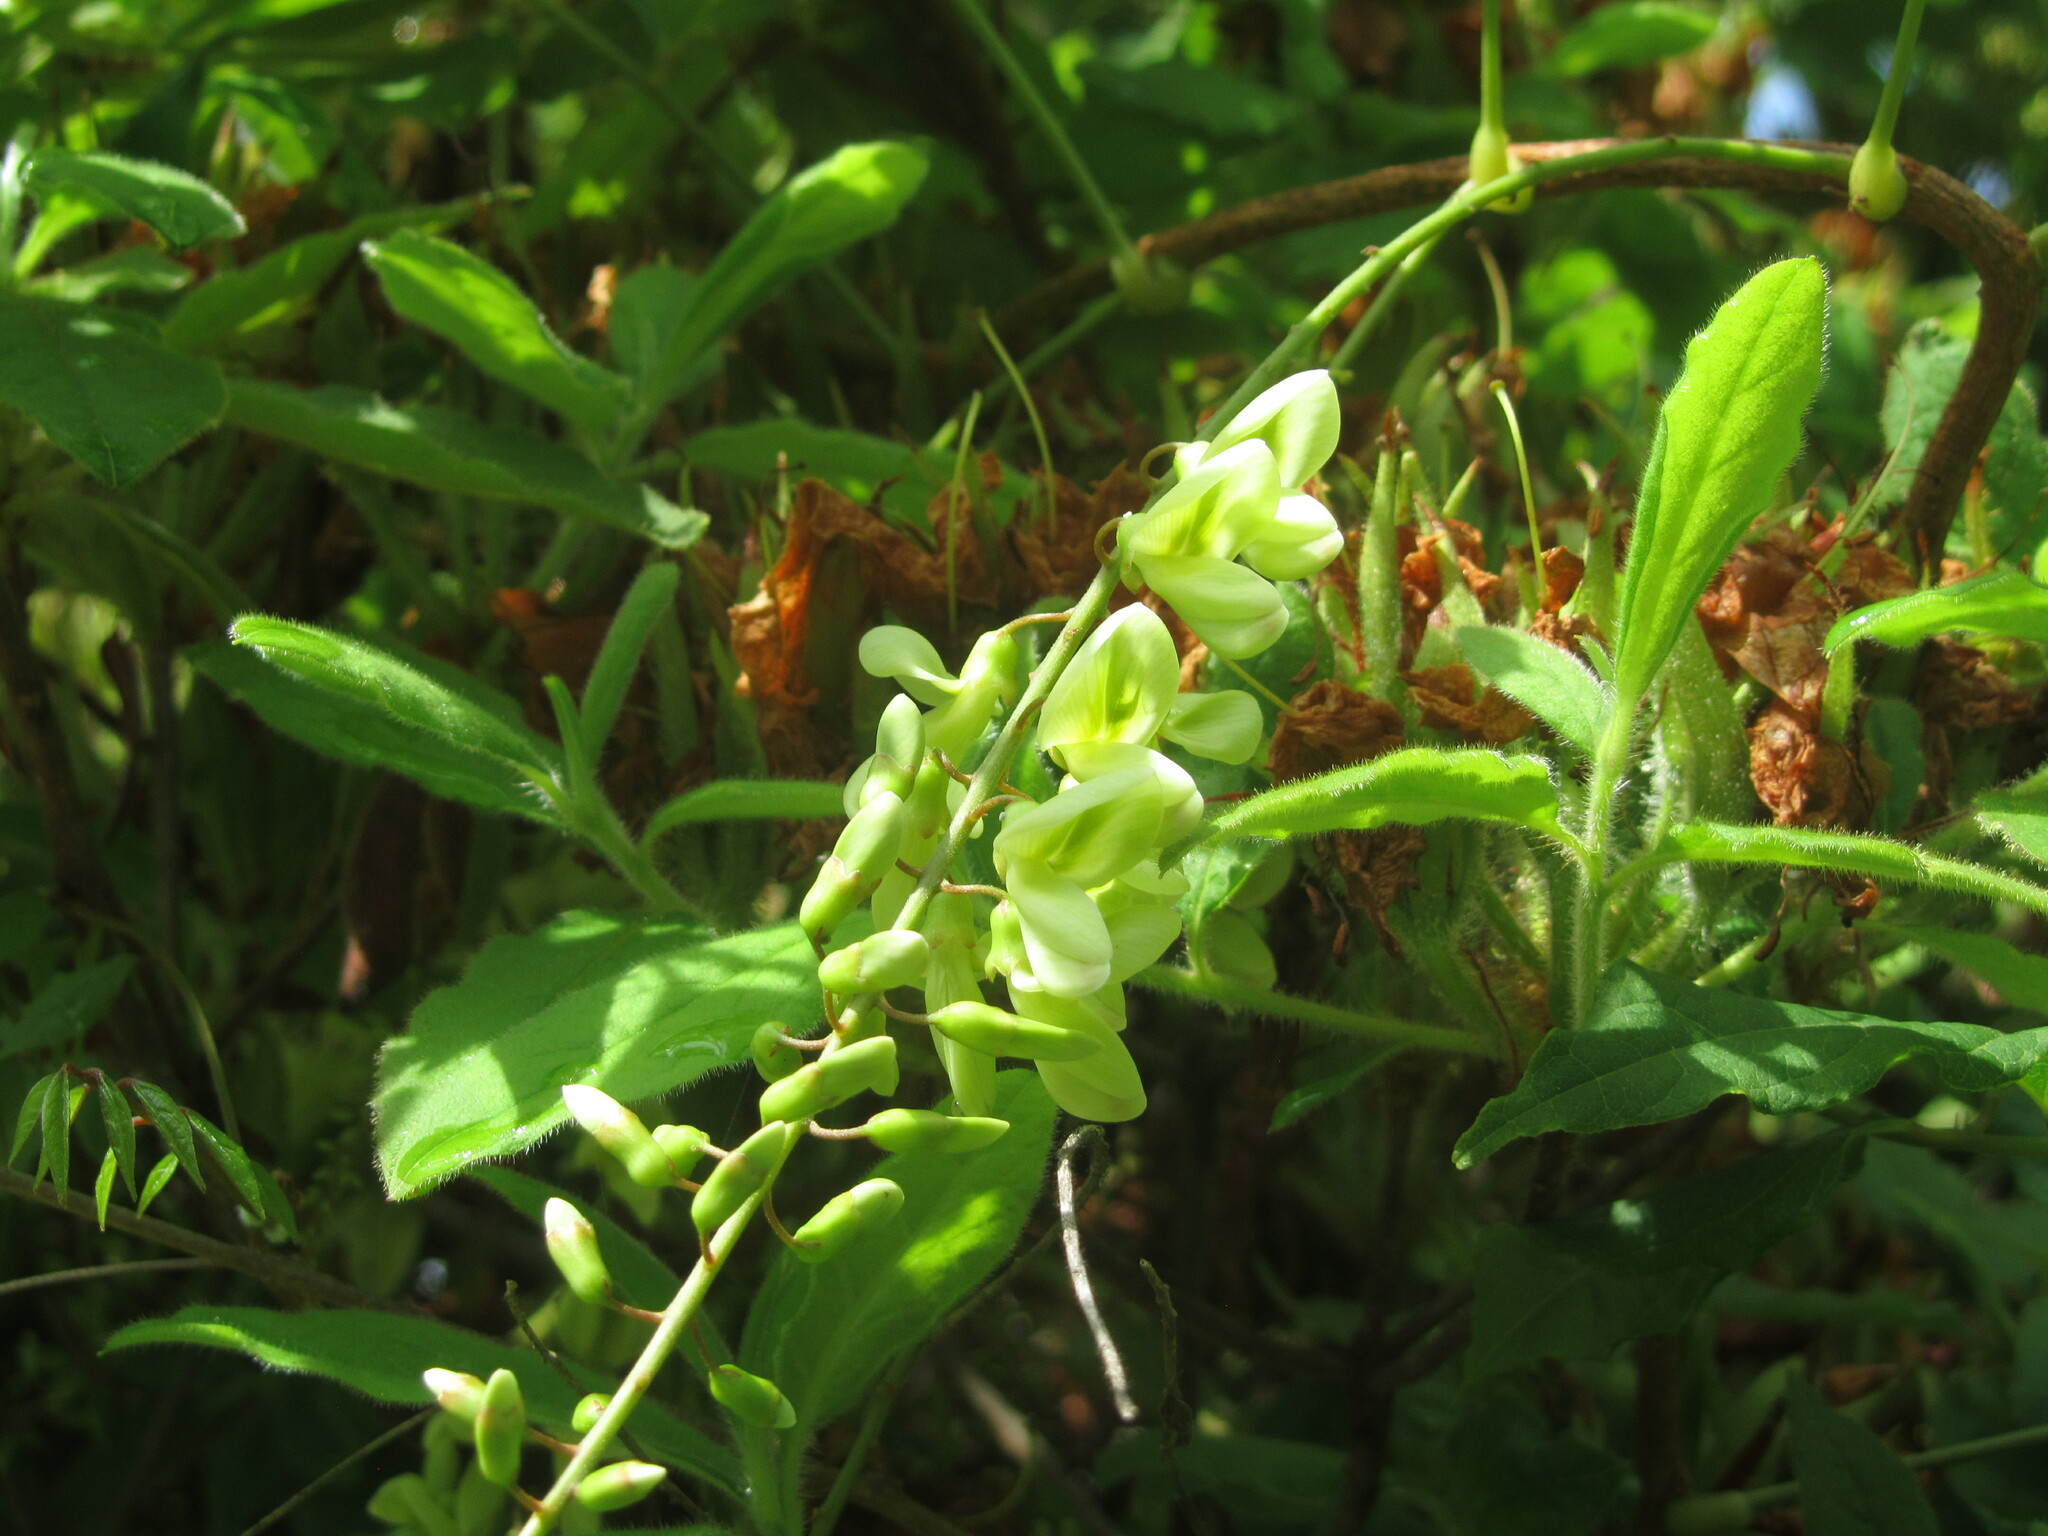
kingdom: Plantae
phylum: Tracheophyta
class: Magnoliopsida
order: Fabales
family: Fabaceae
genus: Wisteriopsis
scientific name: Wisteriopsis japonica
